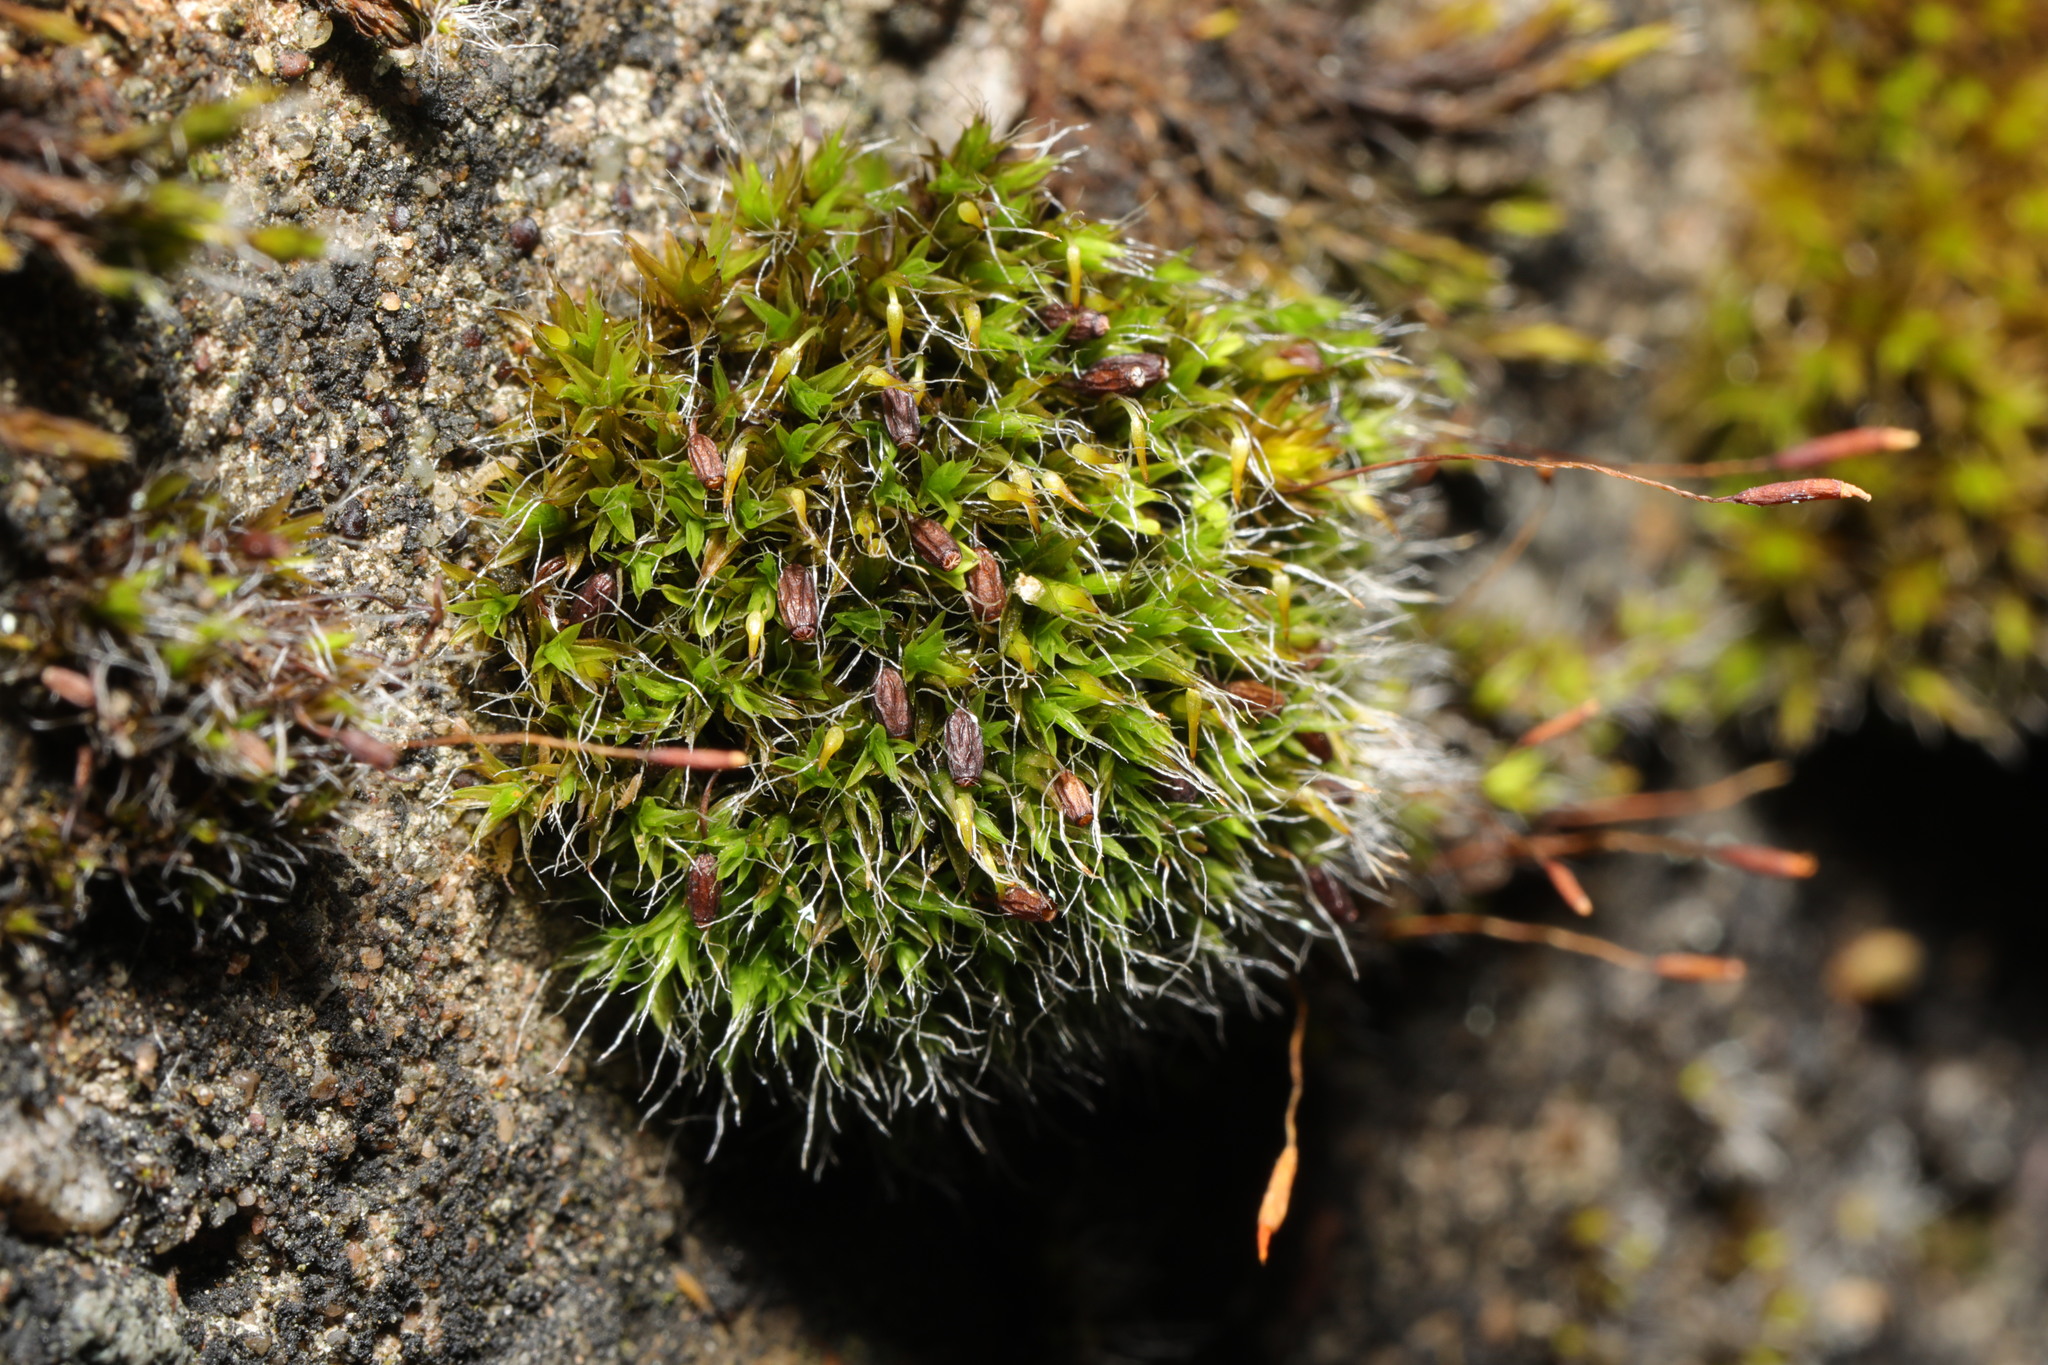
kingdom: Plantae
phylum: Bryophyta
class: Bryopsida
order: Grimmiales
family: Grimmiaceae
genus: Grimmia
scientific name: Grimmia pulvinata
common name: Grey-cushioned grimmia
